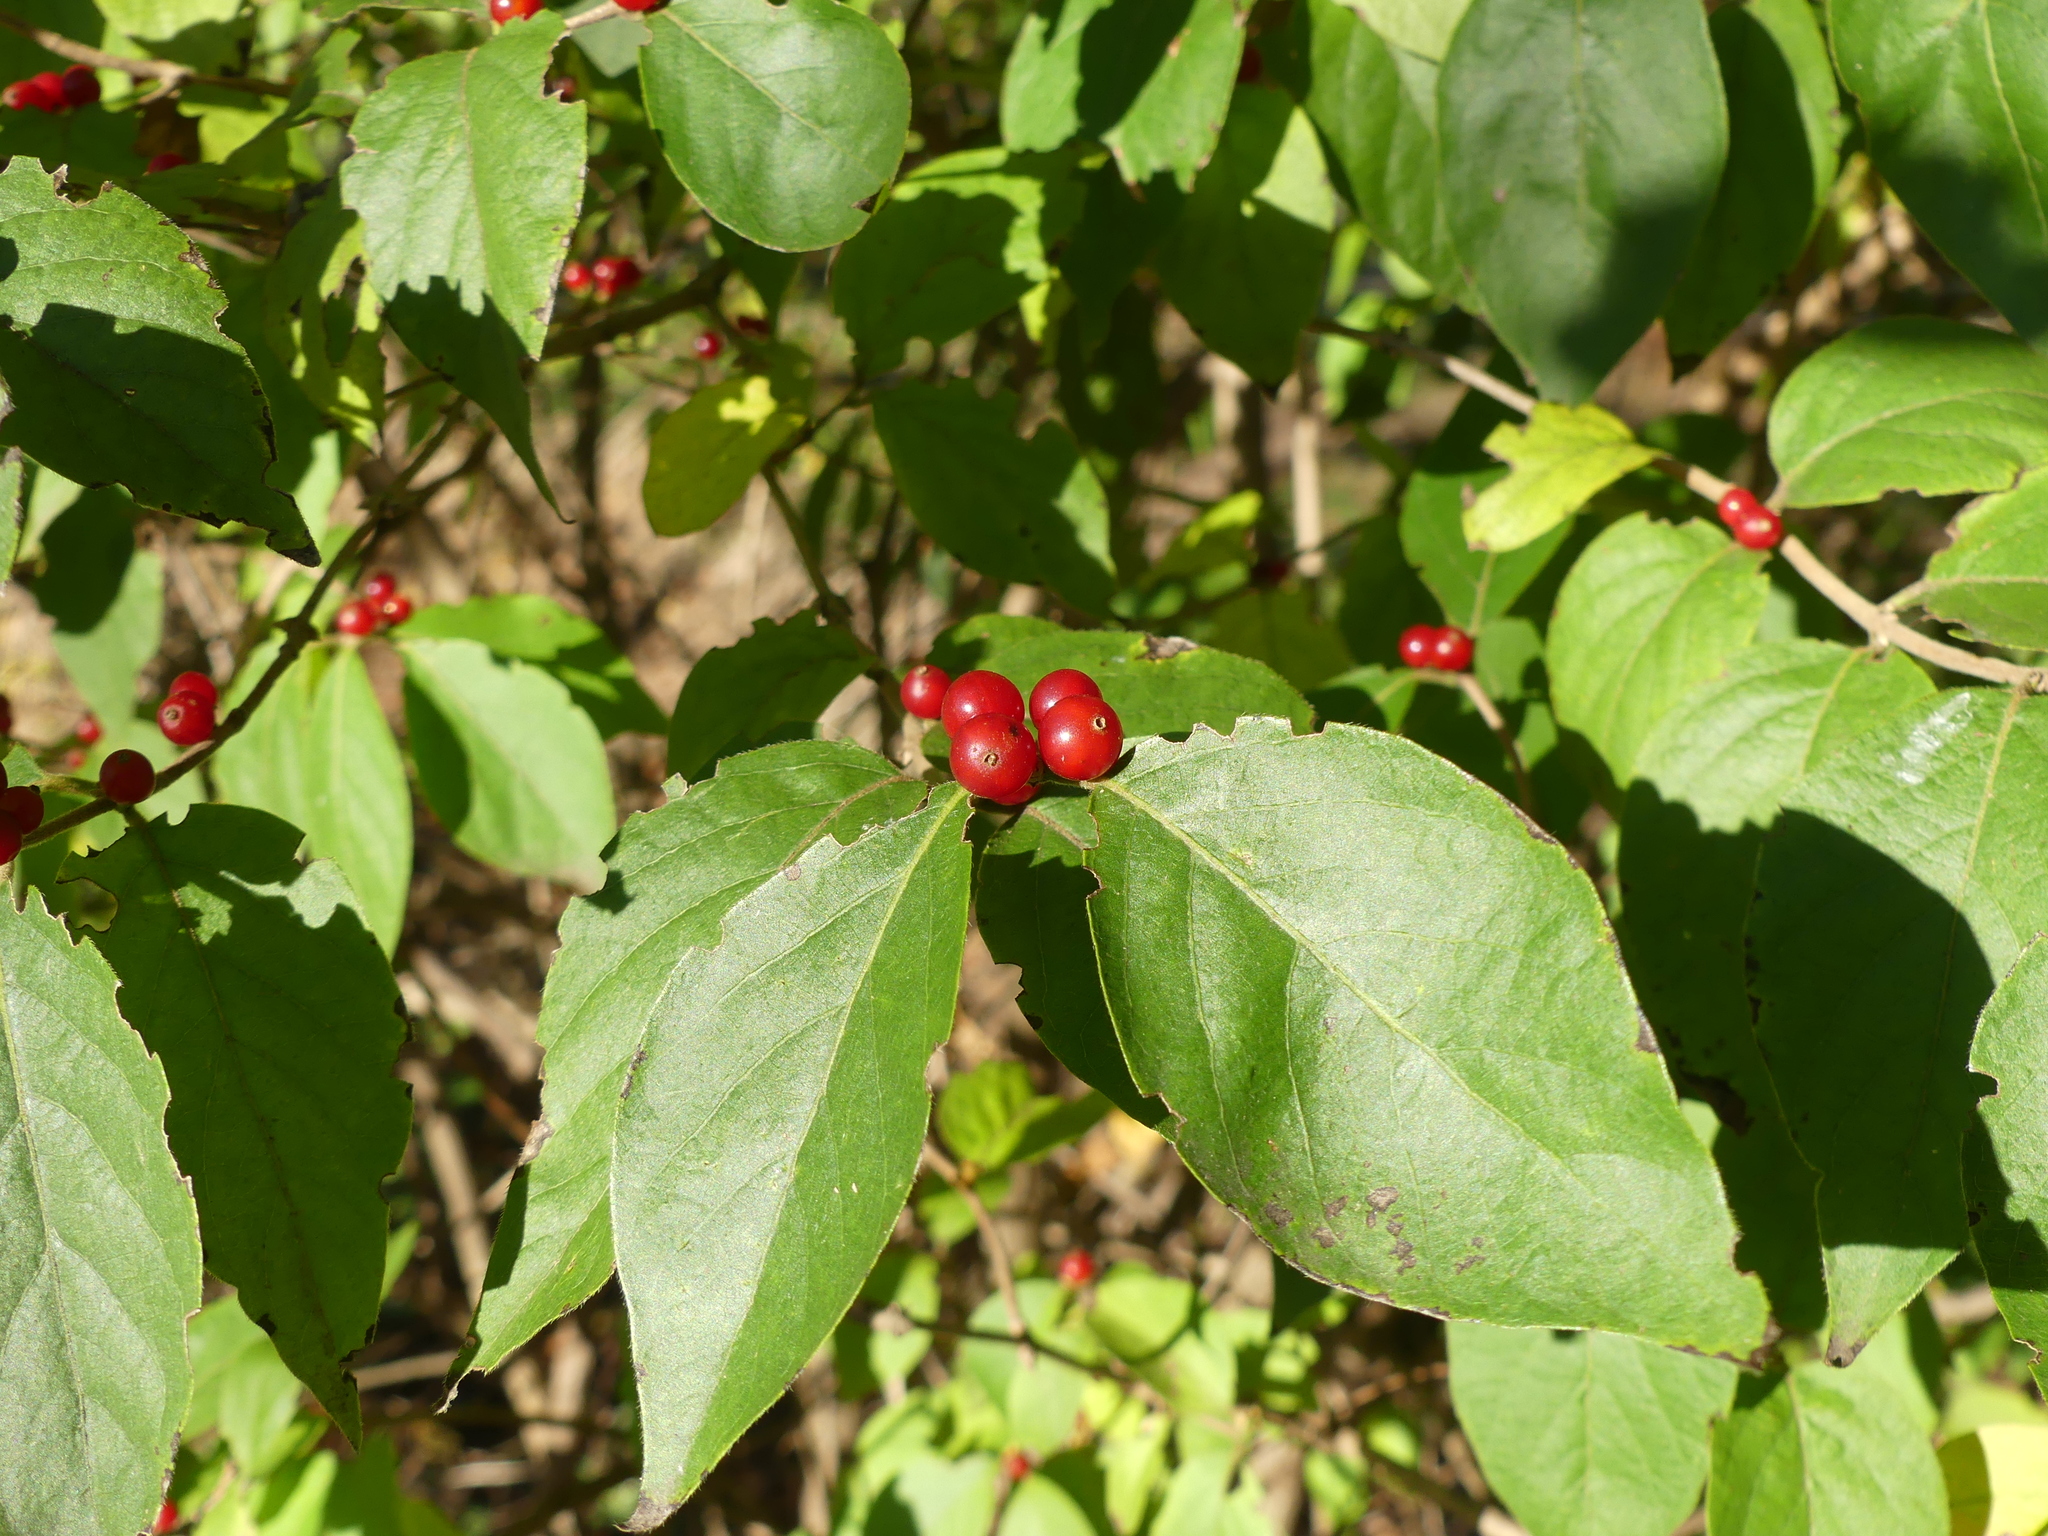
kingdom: Plantae
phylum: Tracheophyta
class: Magnoliopsida
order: Dipsacales
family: Caprifoliaceae
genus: Lonicera
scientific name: Lonicera maackii
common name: Amur honeysuckle
